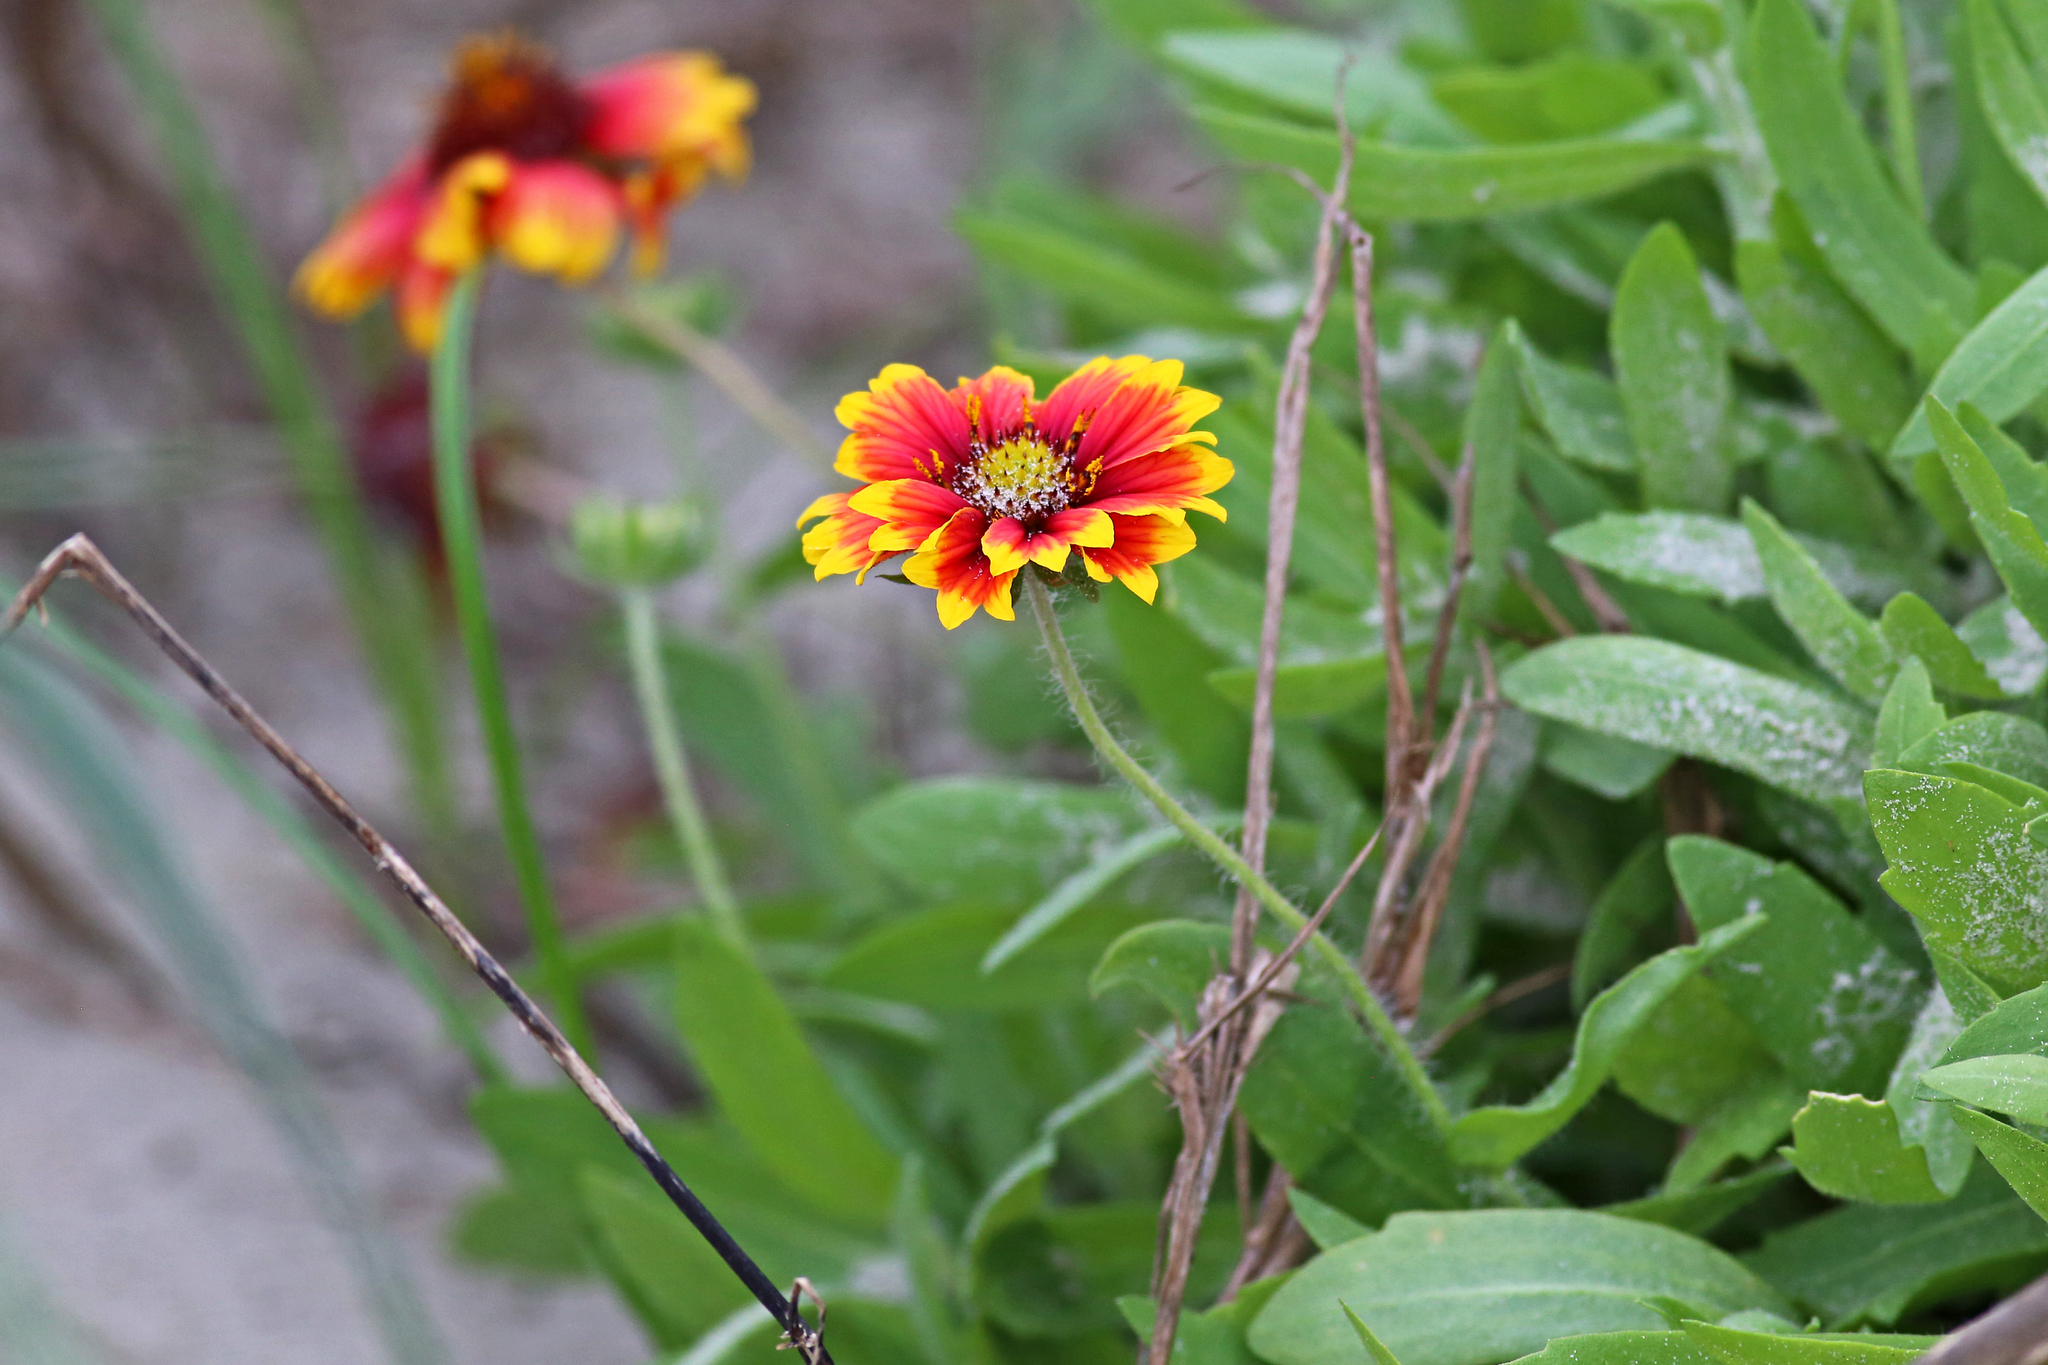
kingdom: Plantae
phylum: Tracheophyta
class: Magnoliopsida
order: Asterales
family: Asteraceae
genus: Gaillardia
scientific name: Gaillardia pulchella
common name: Firewheel
